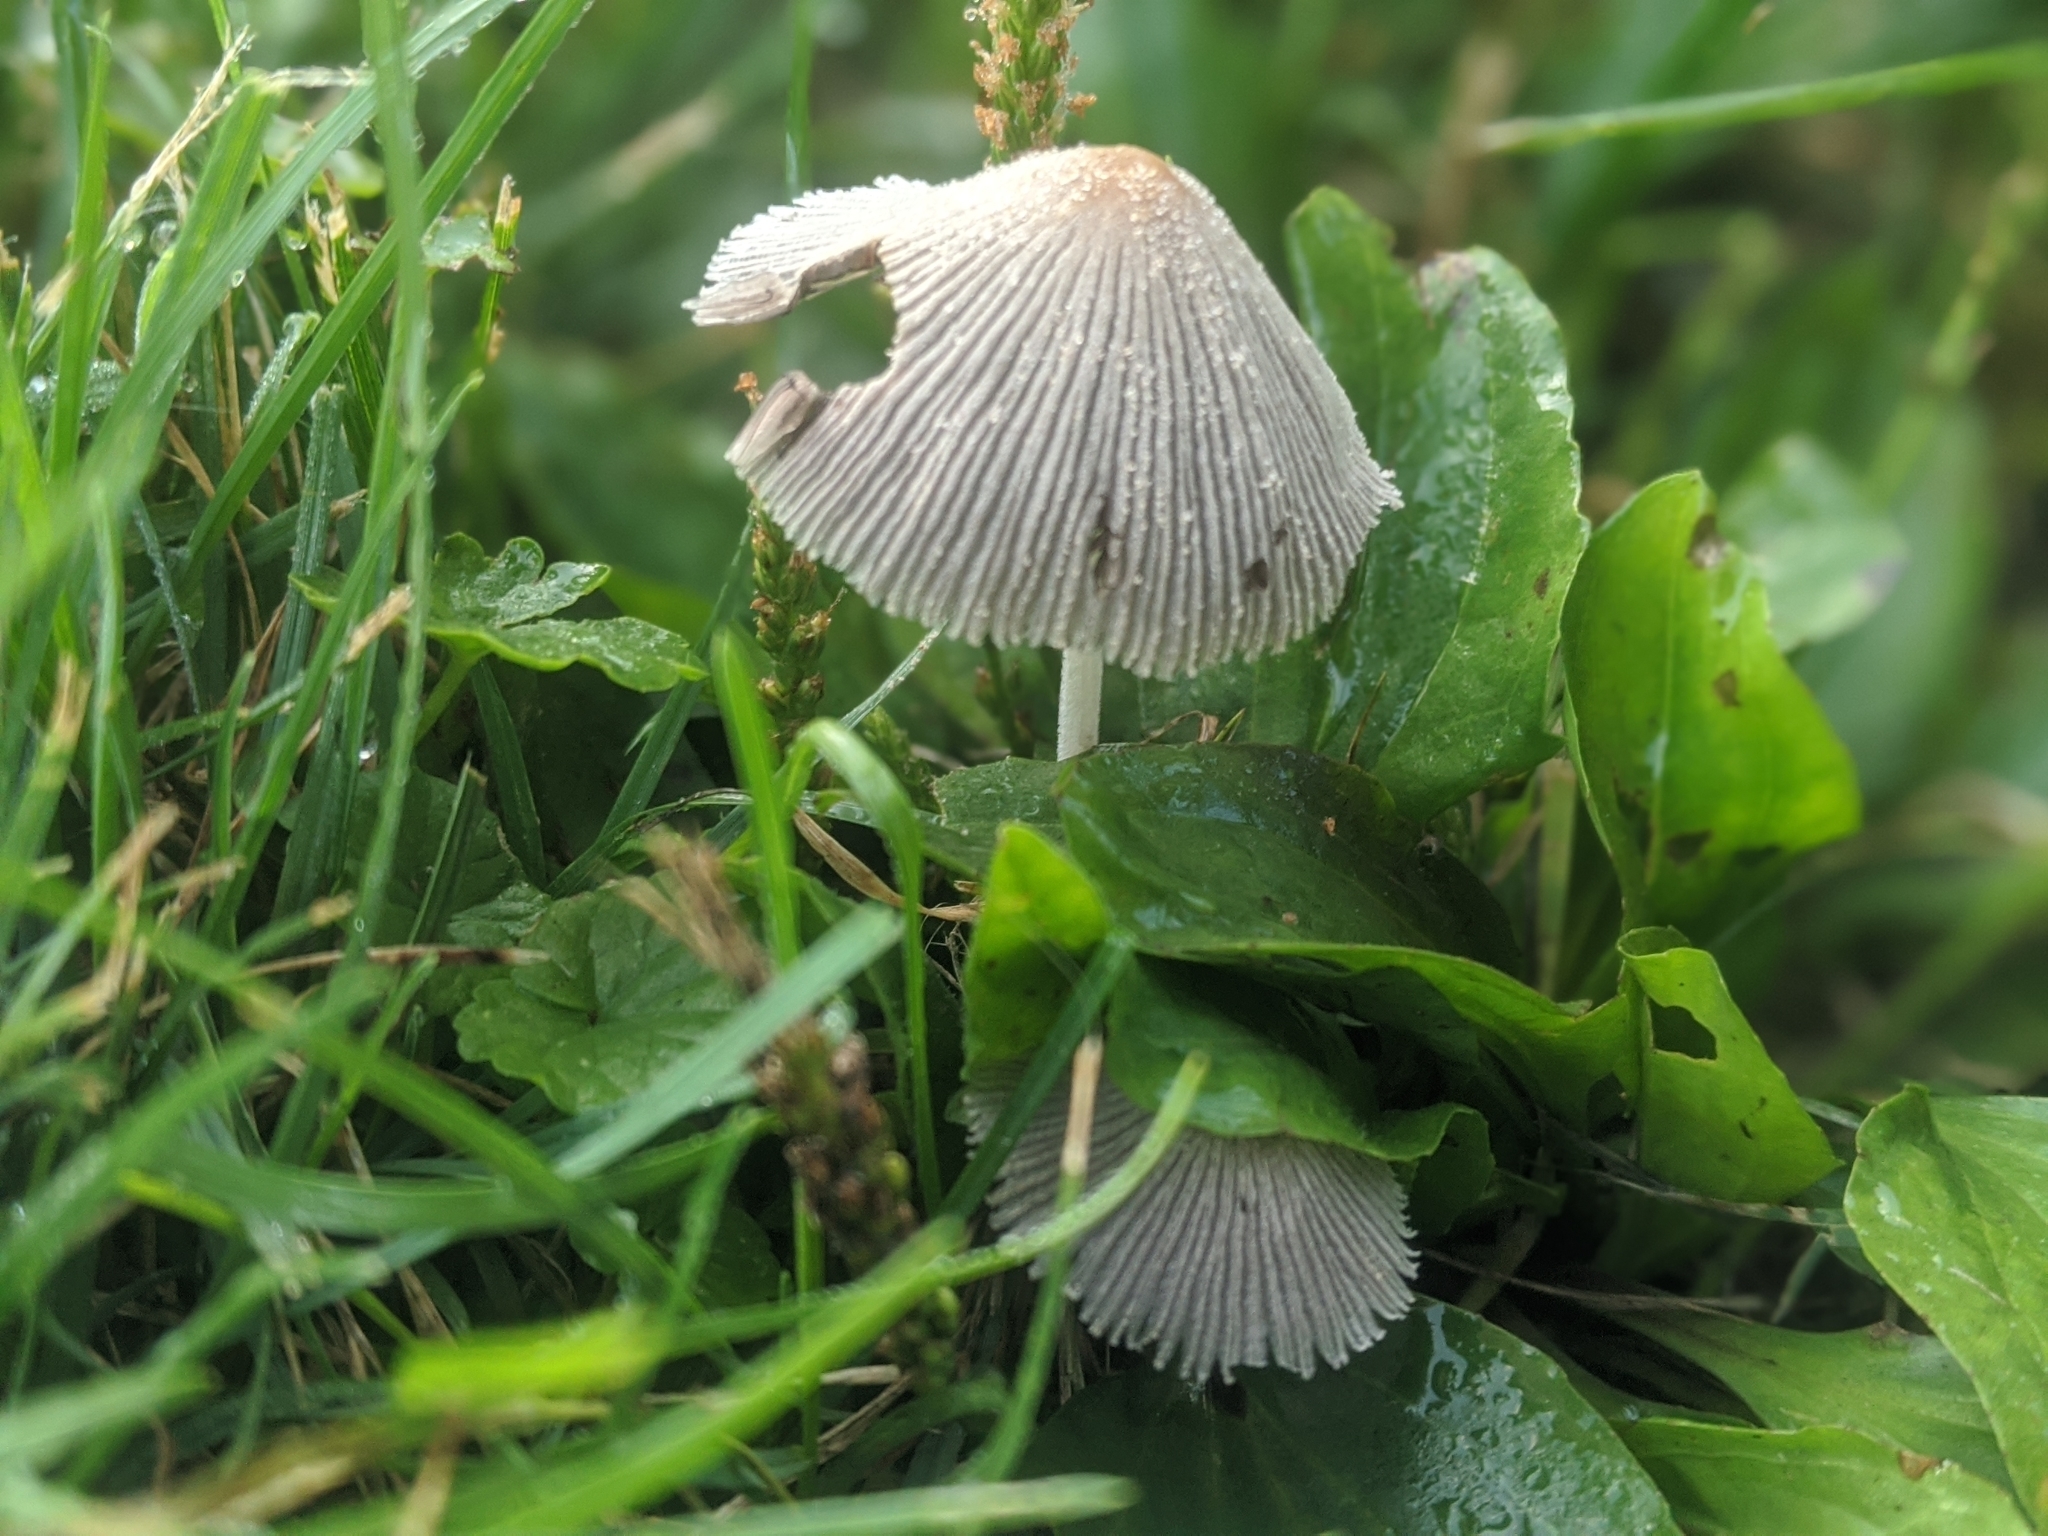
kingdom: Fungi
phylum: Basidiomycota
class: Agaricomycetes
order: Agaricales
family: Psathyrellaceae
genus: Parasola
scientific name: Parasola plicatilis
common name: Pleated inkcap
